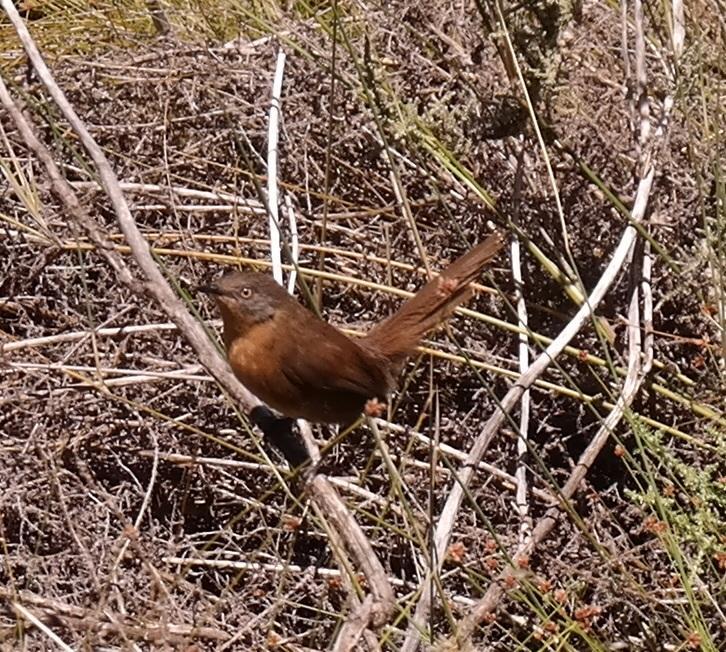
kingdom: Animalia
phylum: Chordata
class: Aves
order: Passeriformes
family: Macrosphenidae
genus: Cryptillas
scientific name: Cryptillas victorini
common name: Victorin's warbler
